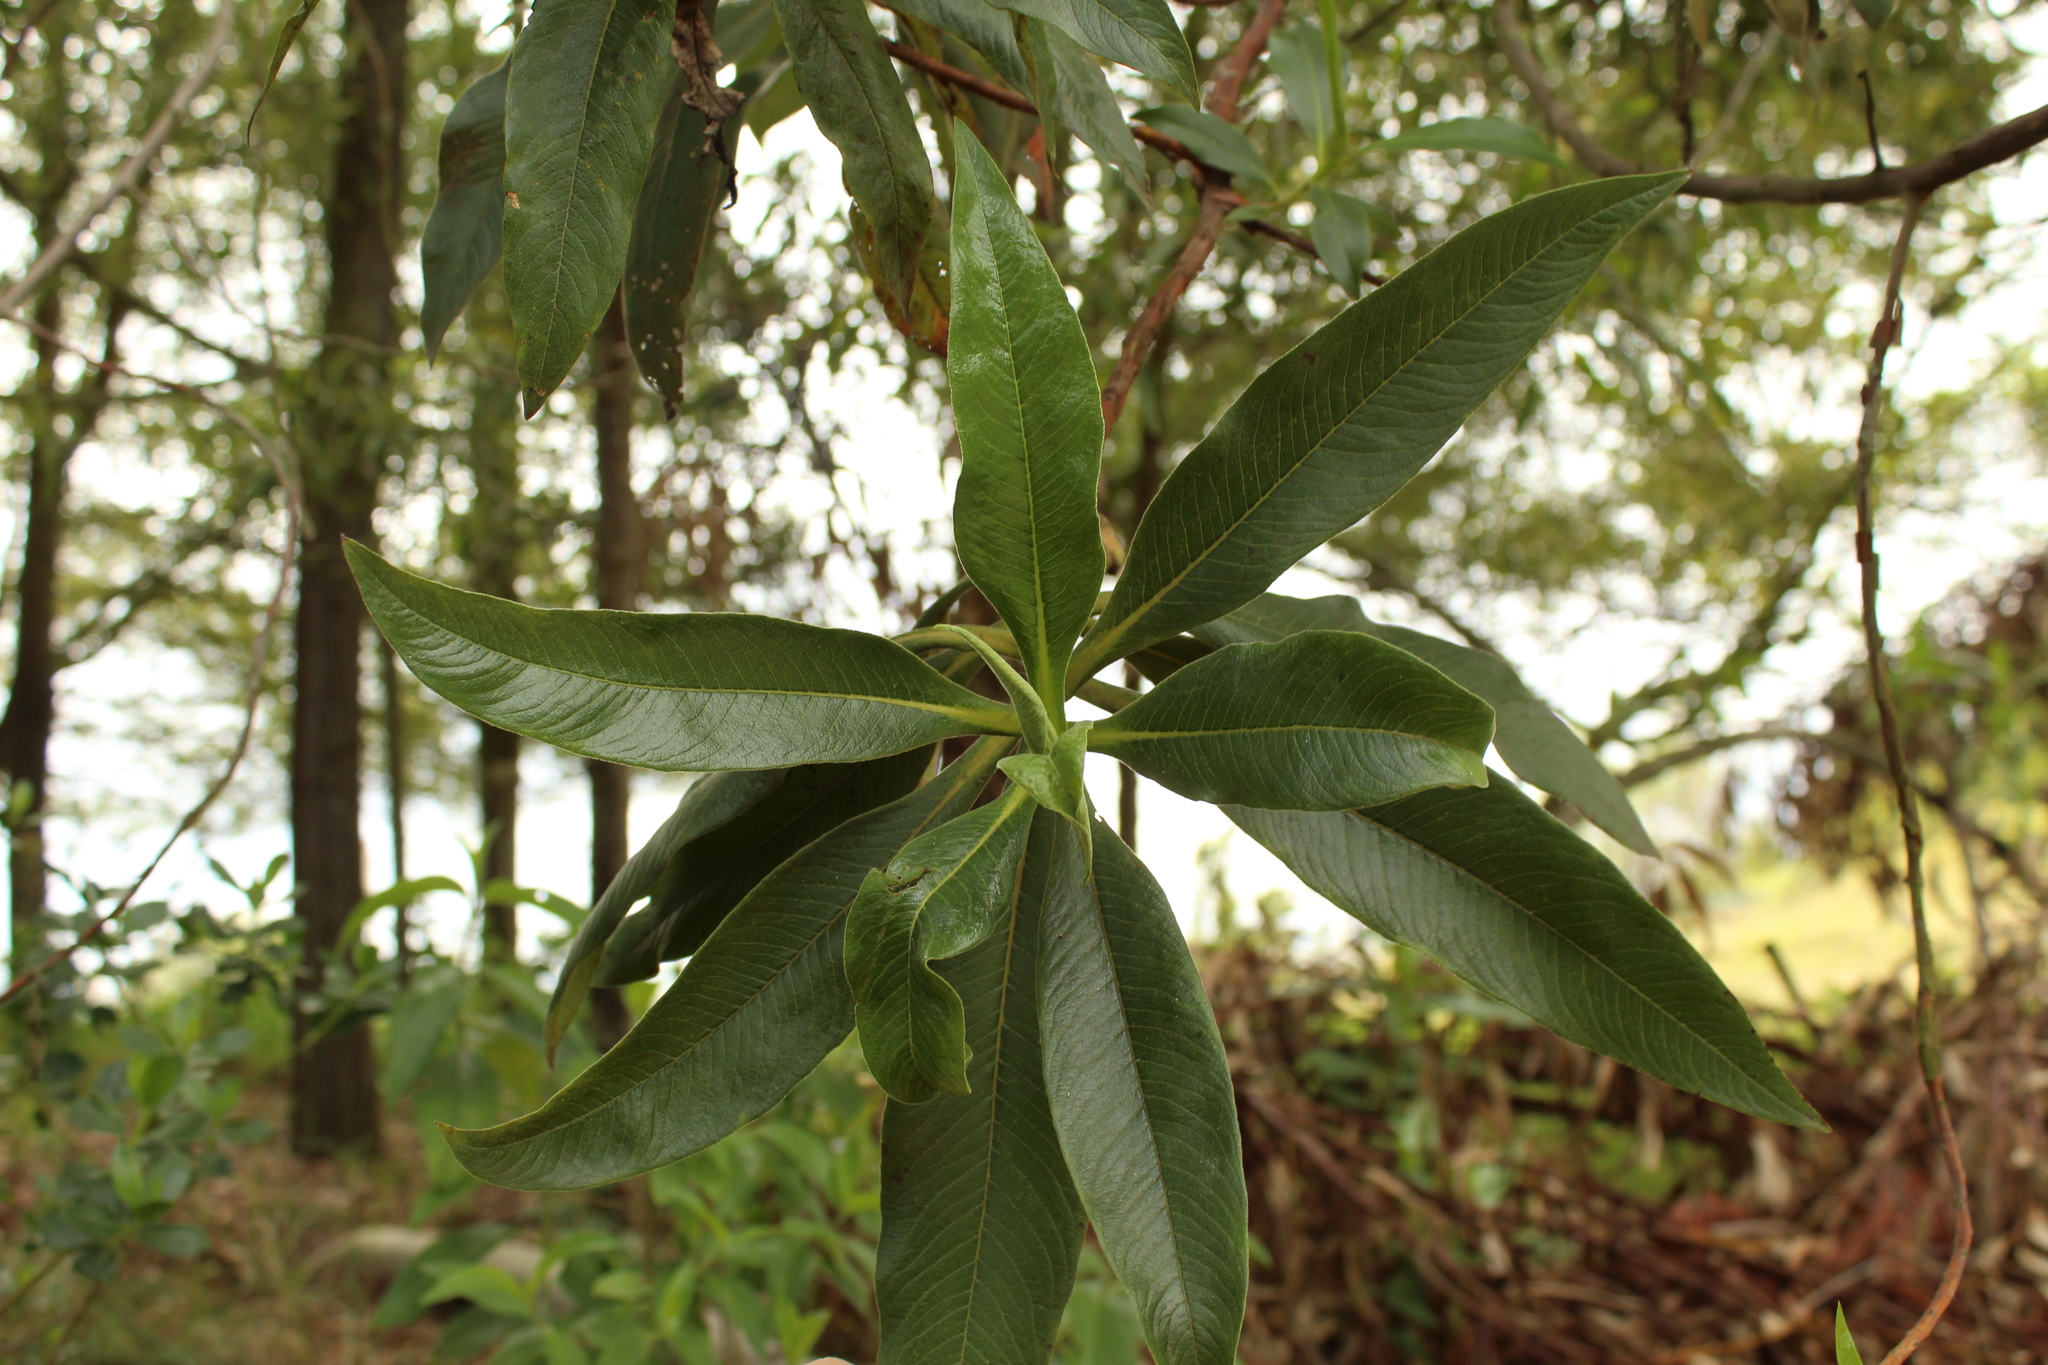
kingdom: Plantae
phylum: Tracheophyta
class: Magnoliopsida
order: Escalloniales
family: Escalloniaceae
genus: Escallonia
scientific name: Escallonia pendula
